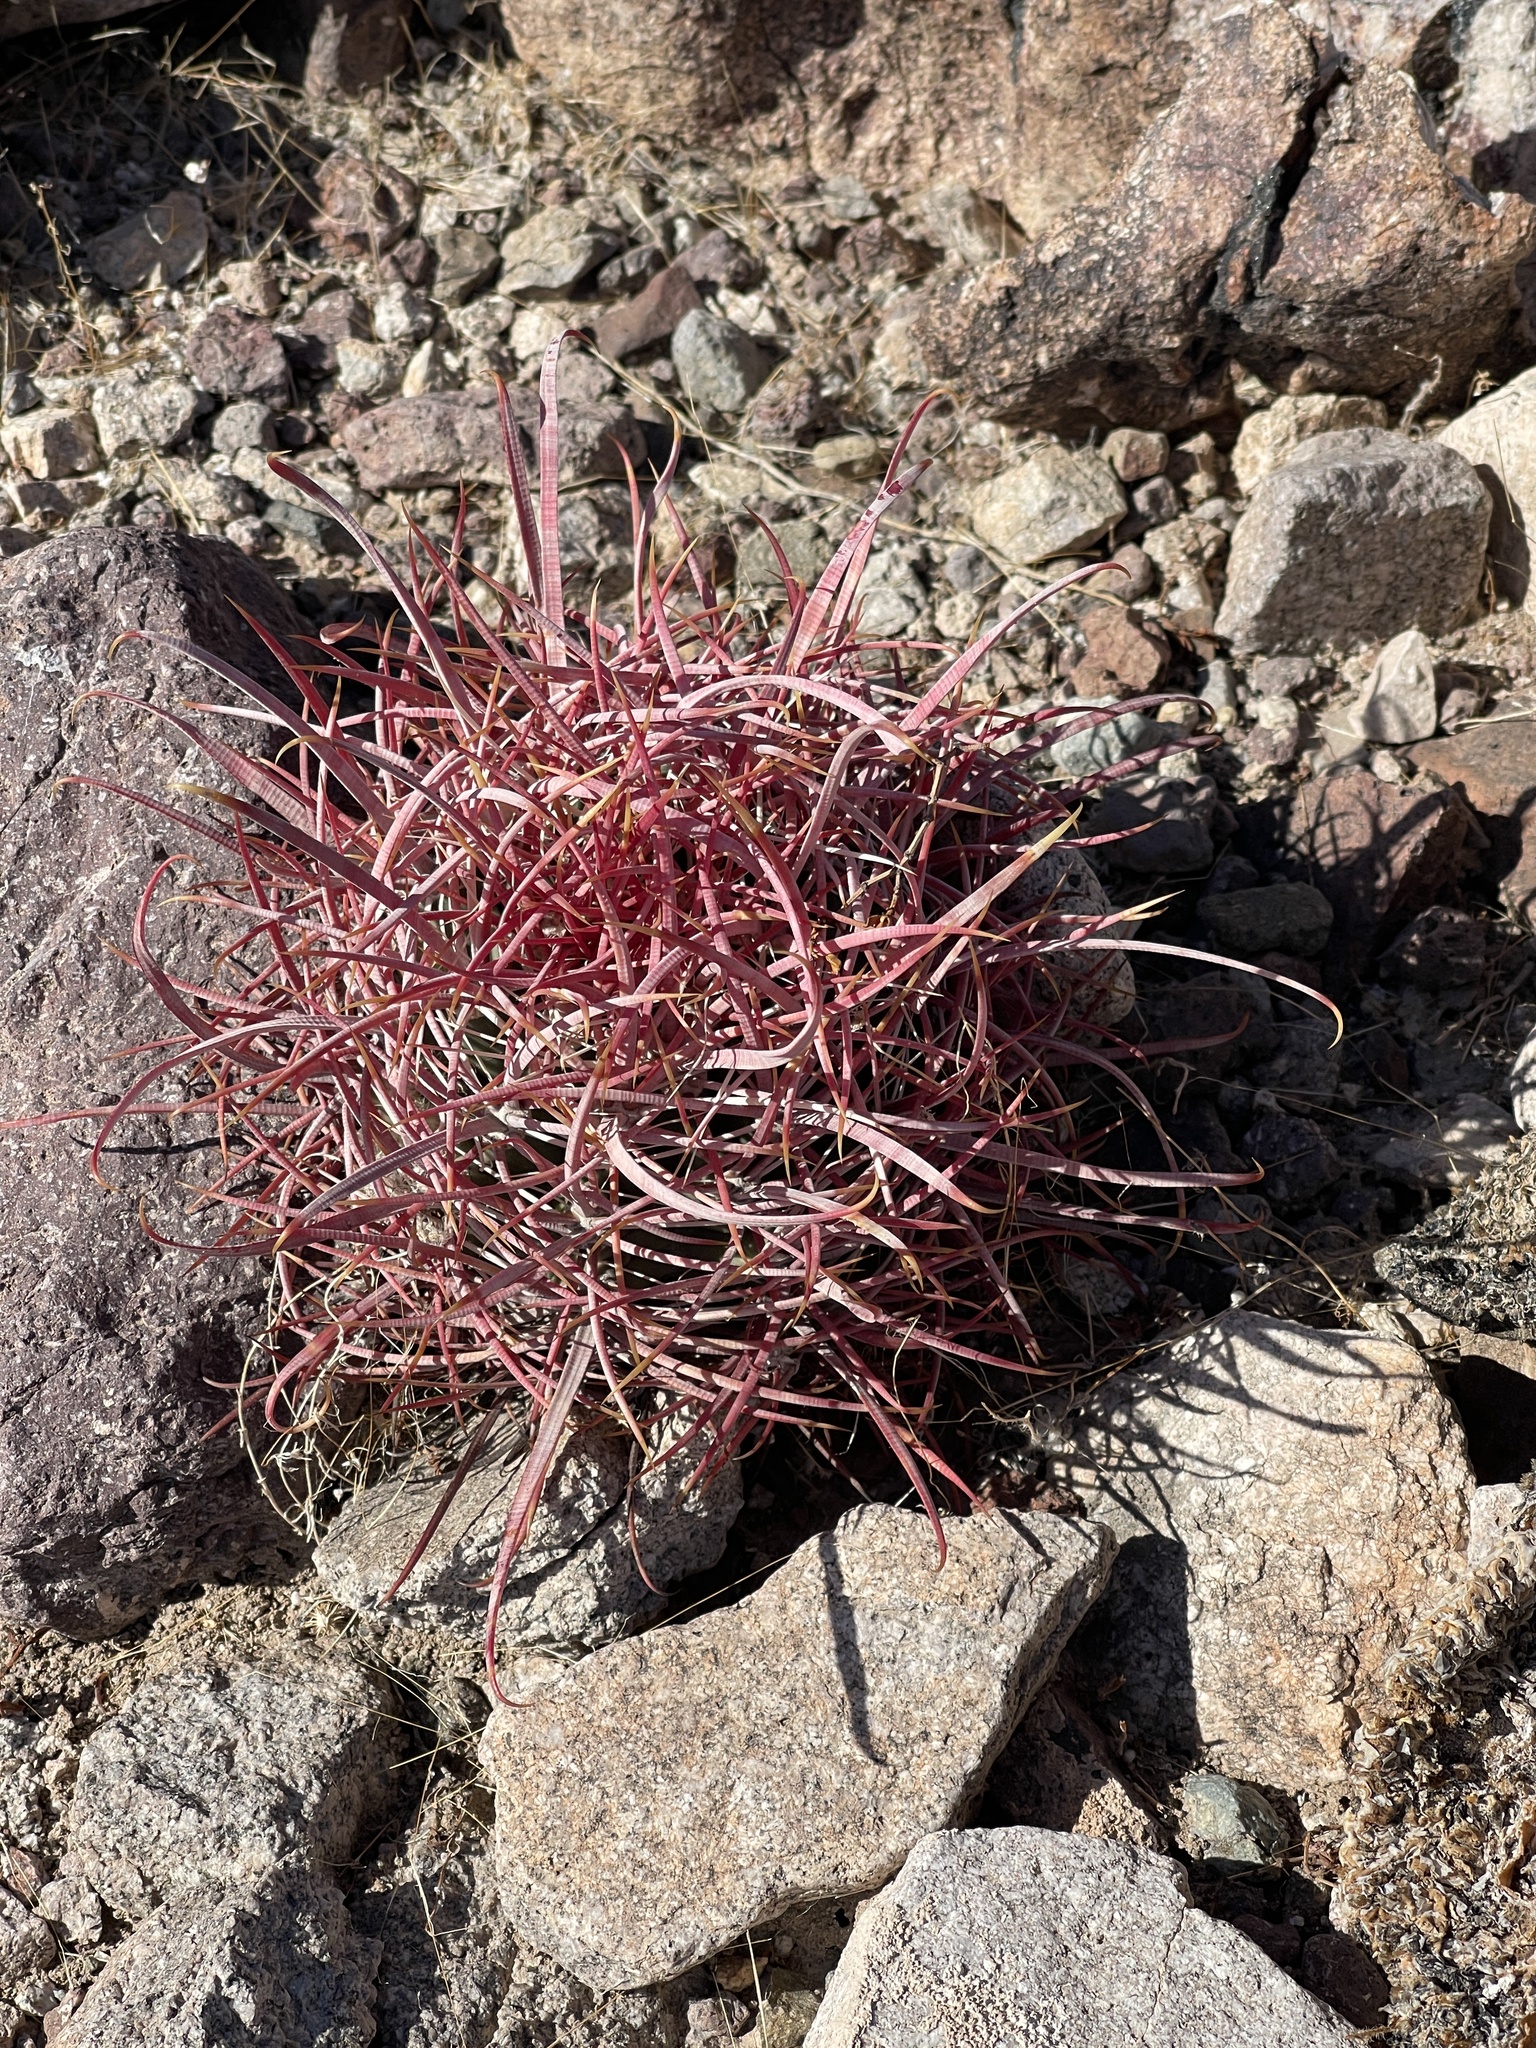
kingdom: Plantae
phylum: Tracheophyta
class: Magnoliopsida
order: Caryophyllales
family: Cactaceae
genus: Ferocactus
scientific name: Ferocactus cylindraceus
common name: California barrel cactus
